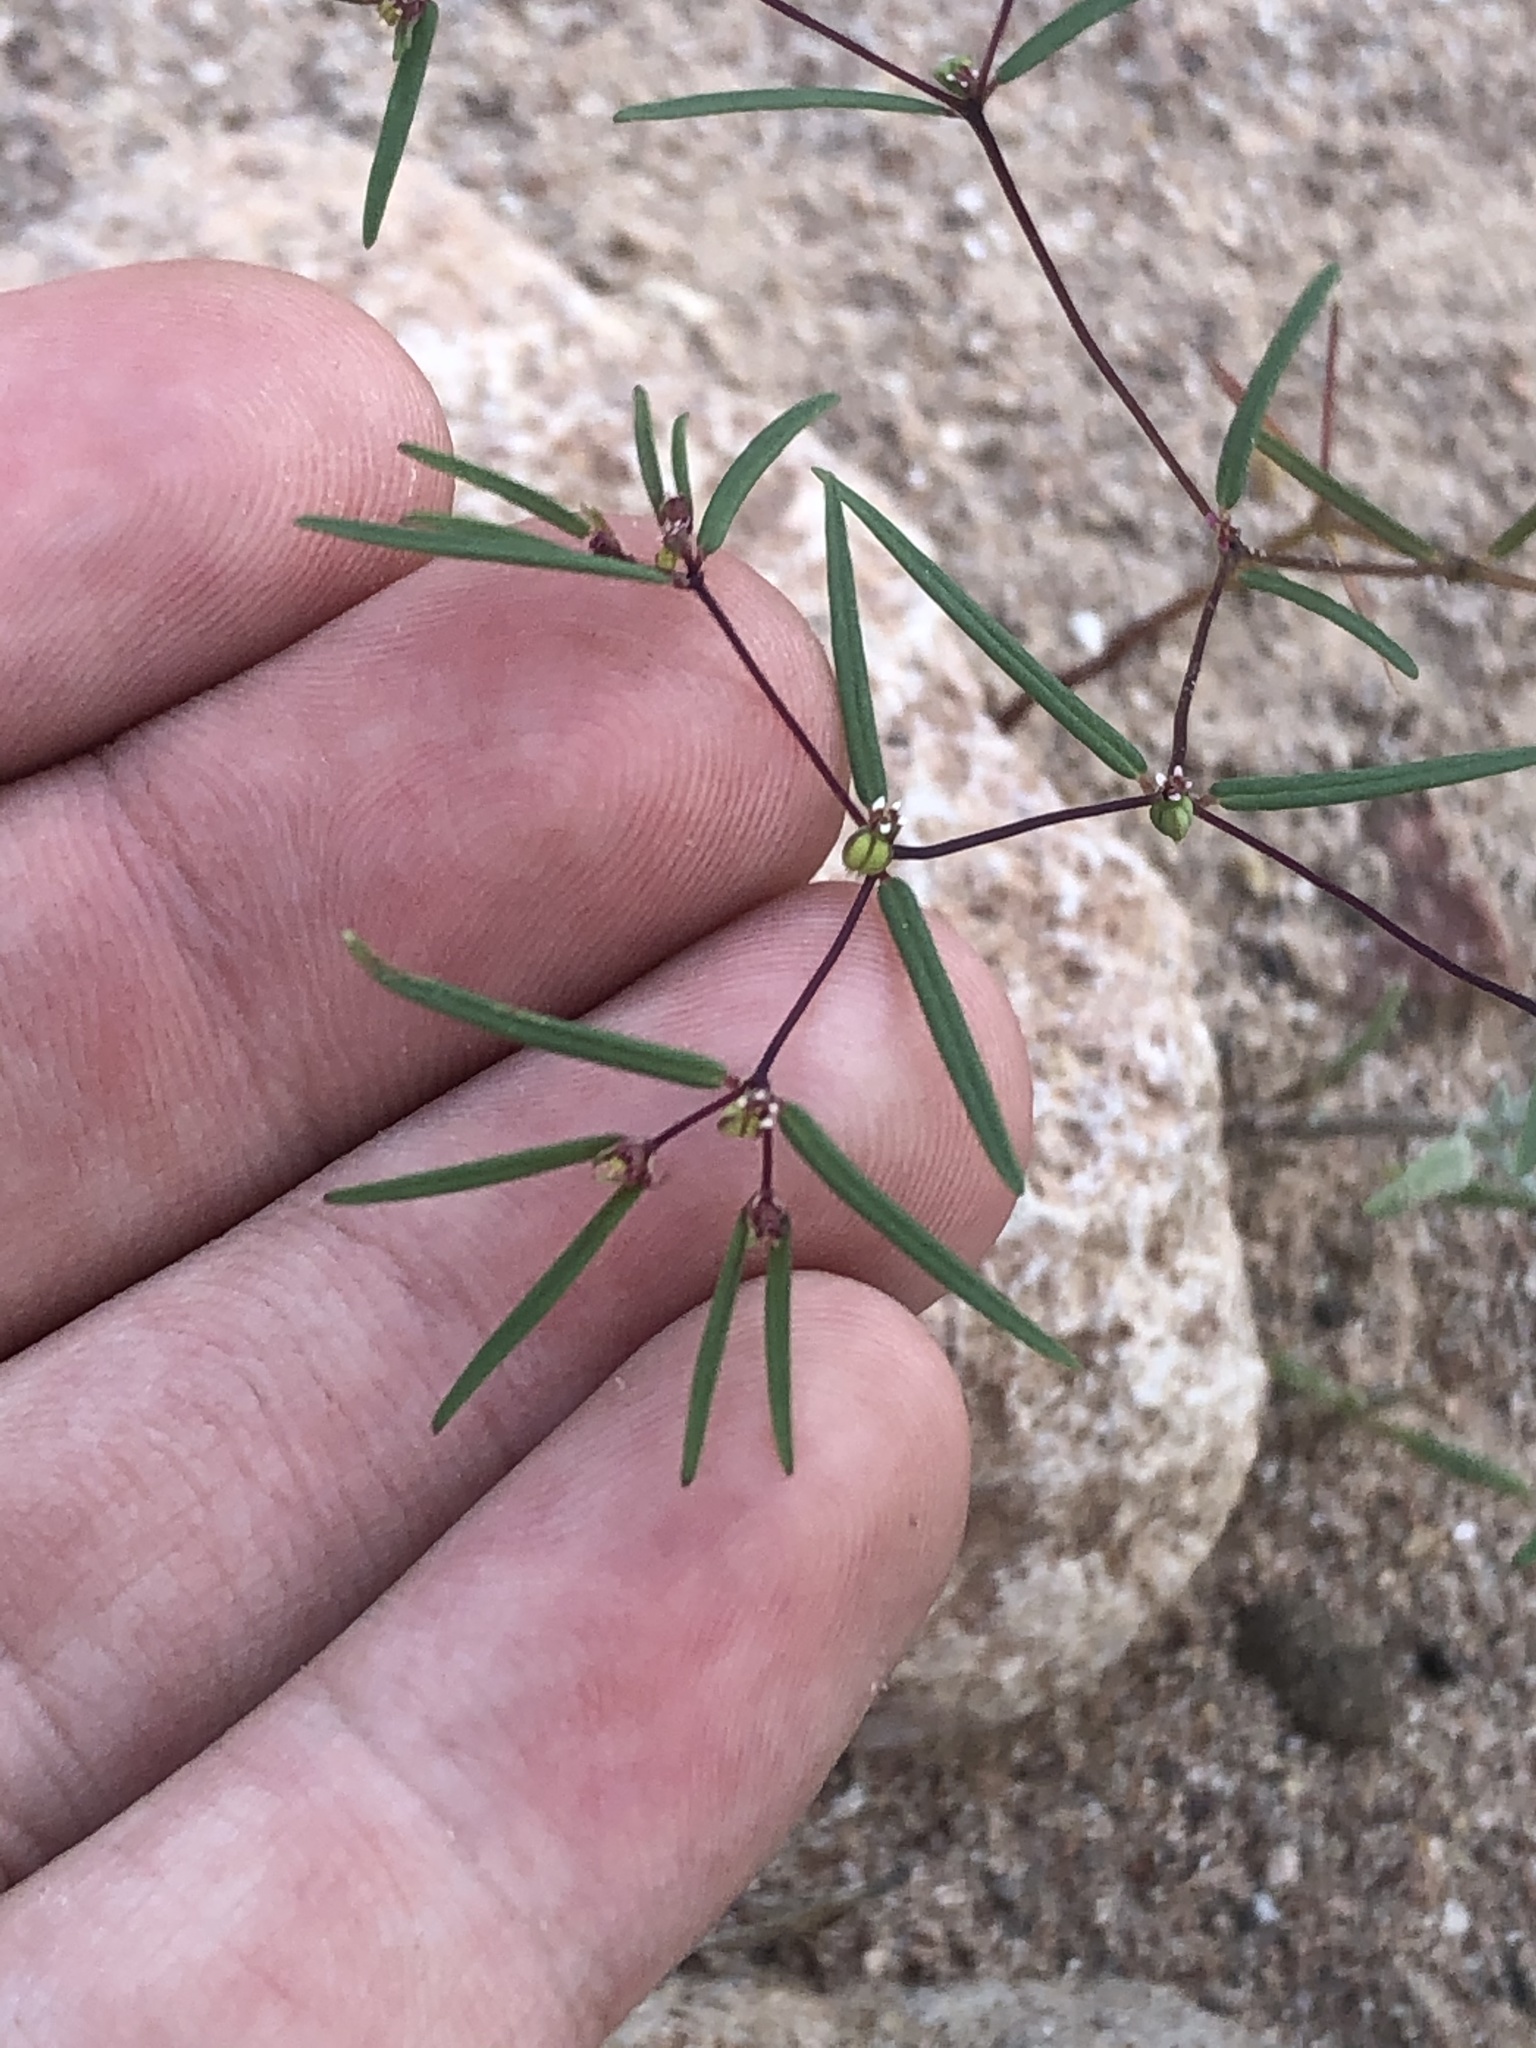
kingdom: Plantae
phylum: Tracheophyta
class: Magnoliopsida
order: Malpighiales
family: Euphorbiaceae
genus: Euphorbia
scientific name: Euphorbia revoluta
